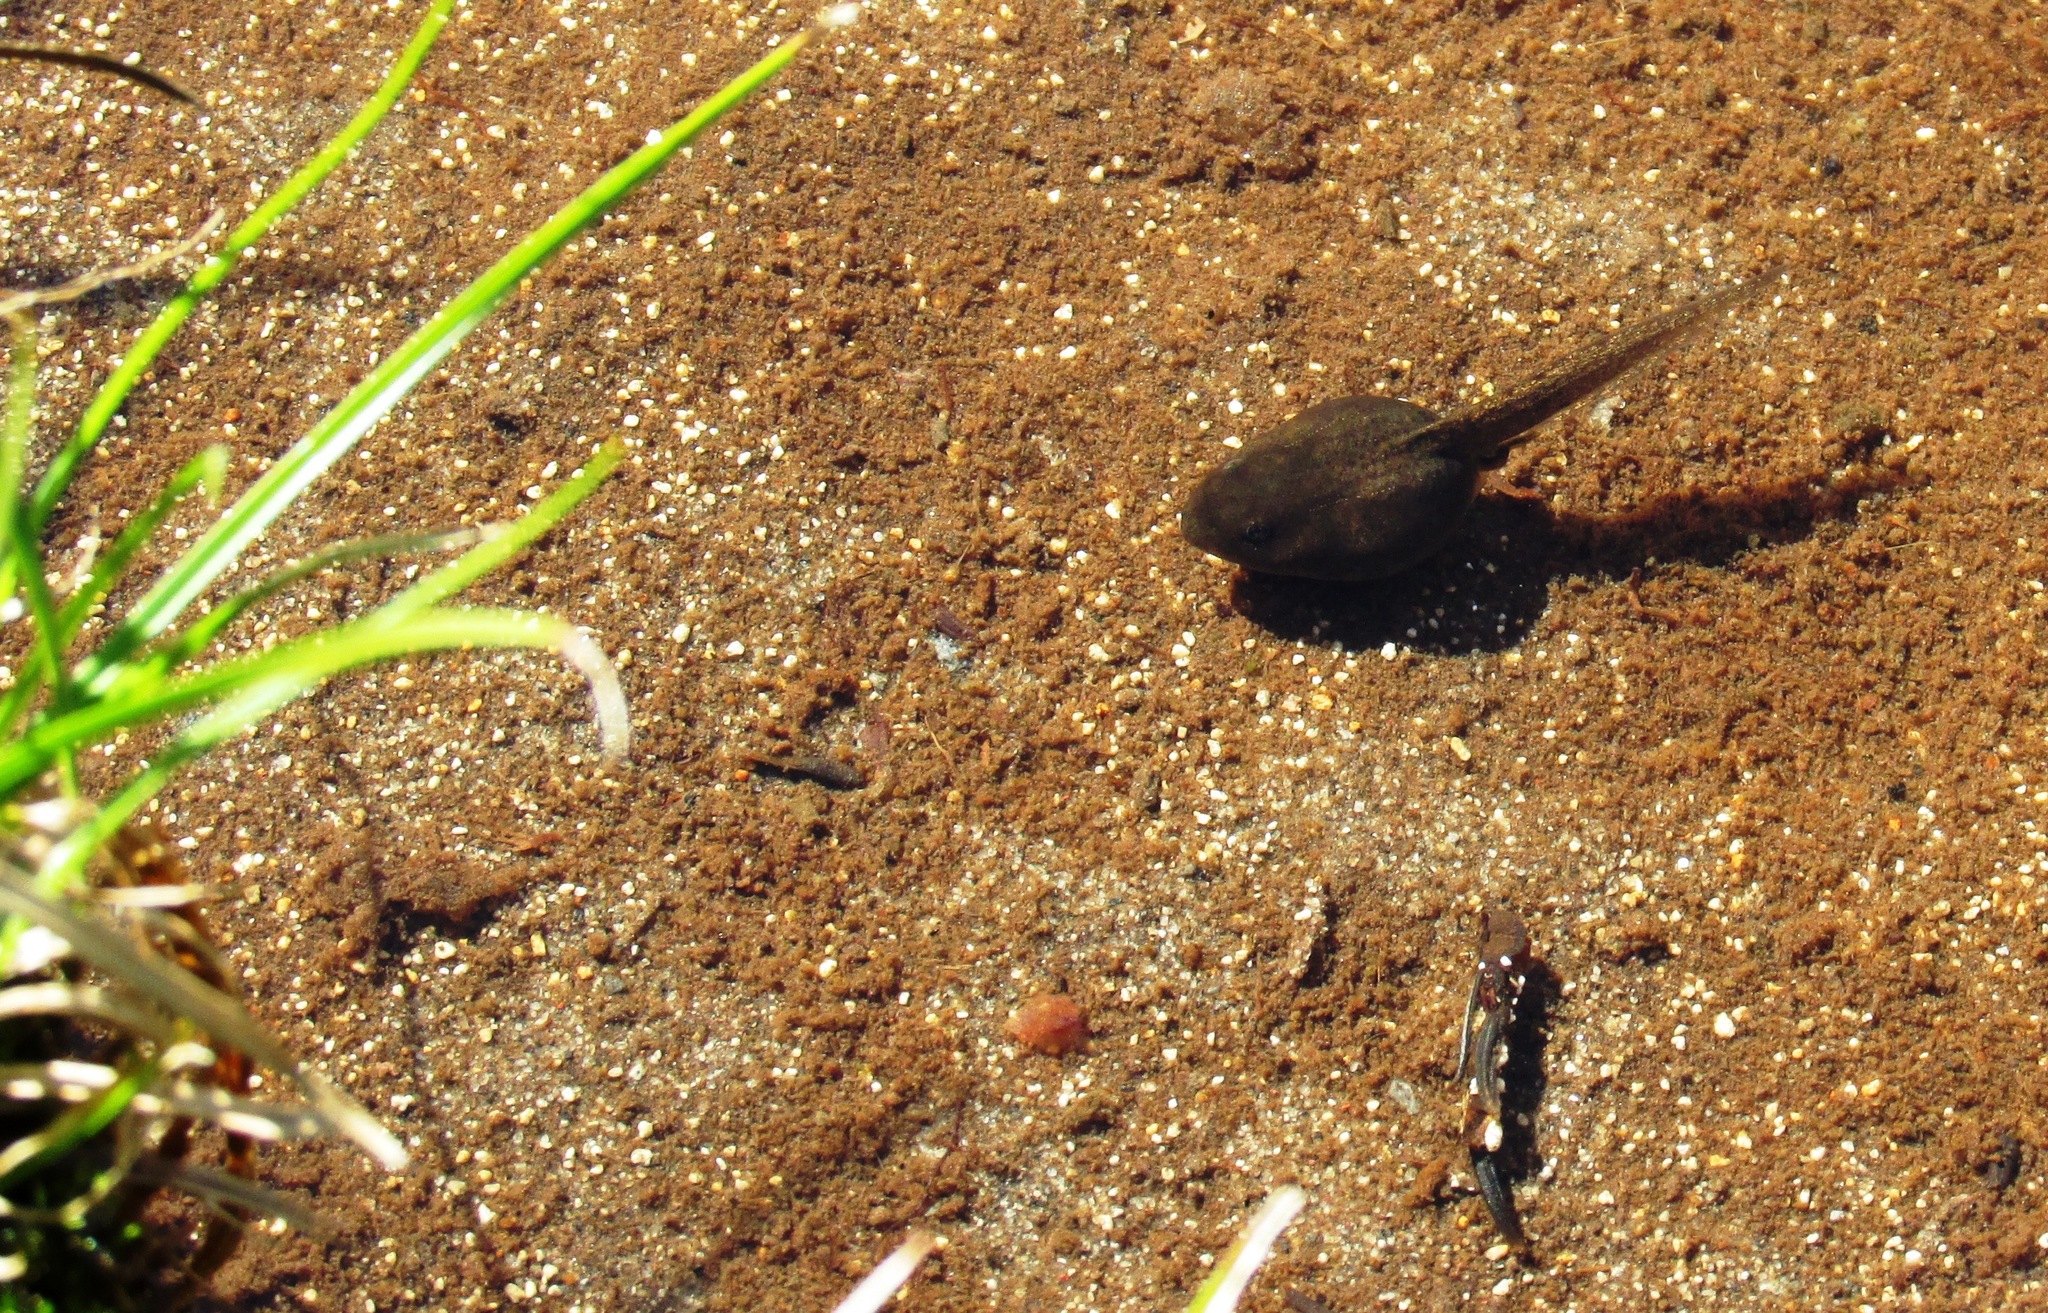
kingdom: Animalia
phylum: Chordata
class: Amphibia
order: Anura
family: Ranidae
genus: Rana
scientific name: Rana cascadae
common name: Cascades frog
